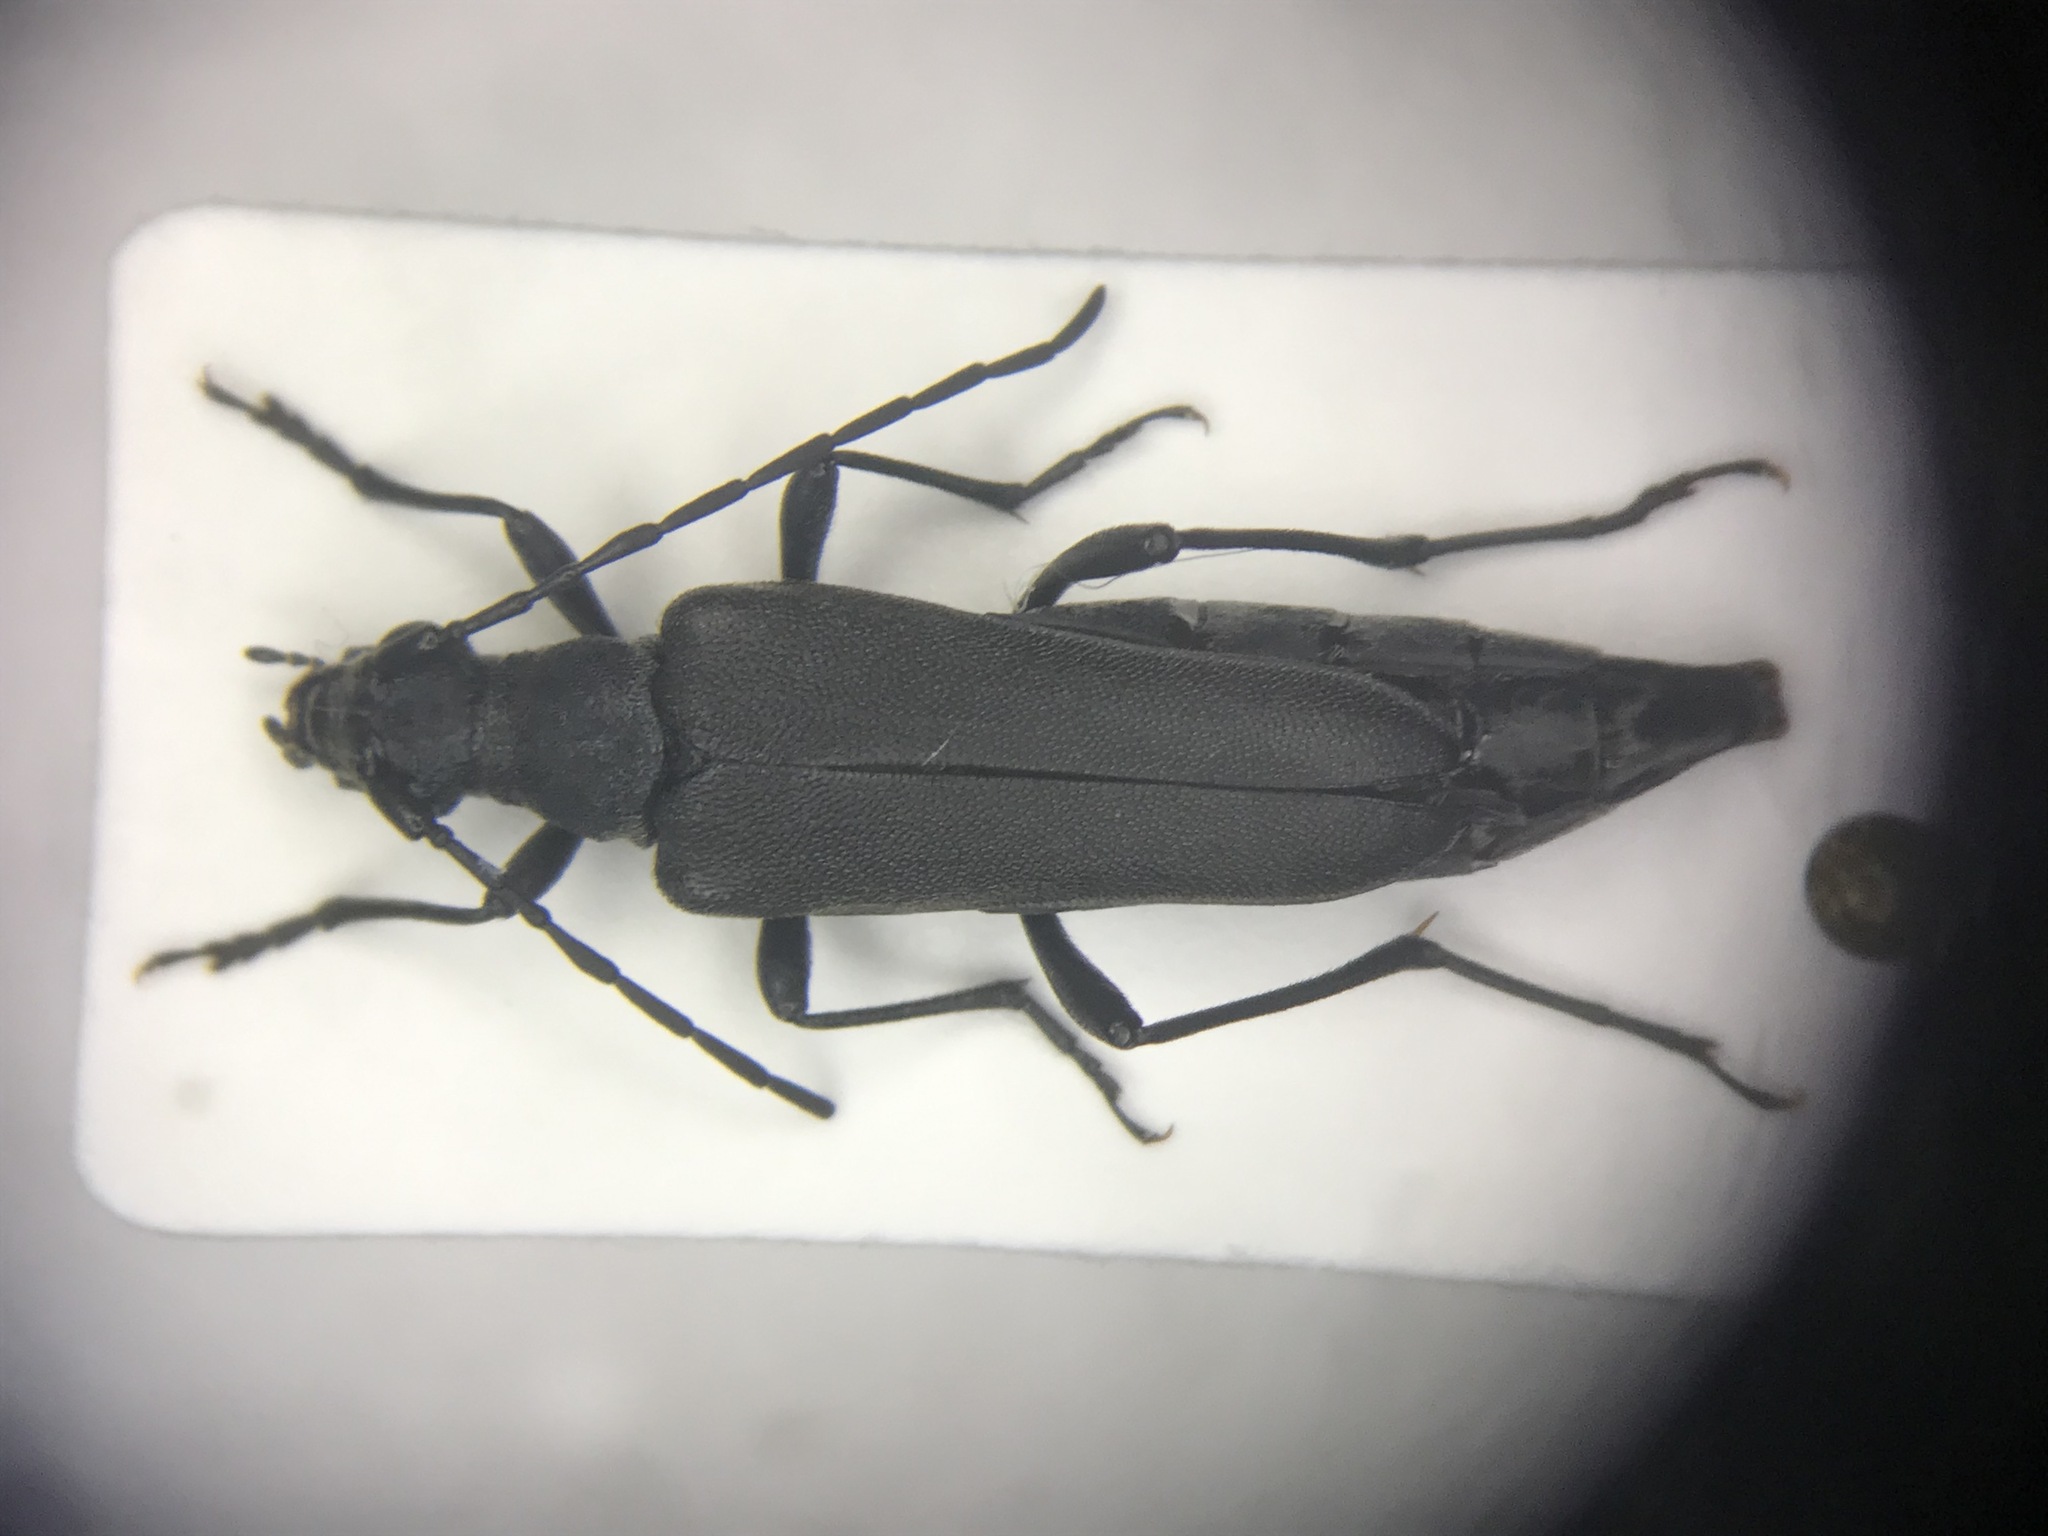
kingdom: Animalia
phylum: Arthropoda
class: Insecta
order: Coleoptera
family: Cerambycidae
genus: Trachysida
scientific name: Trachysida aspera
